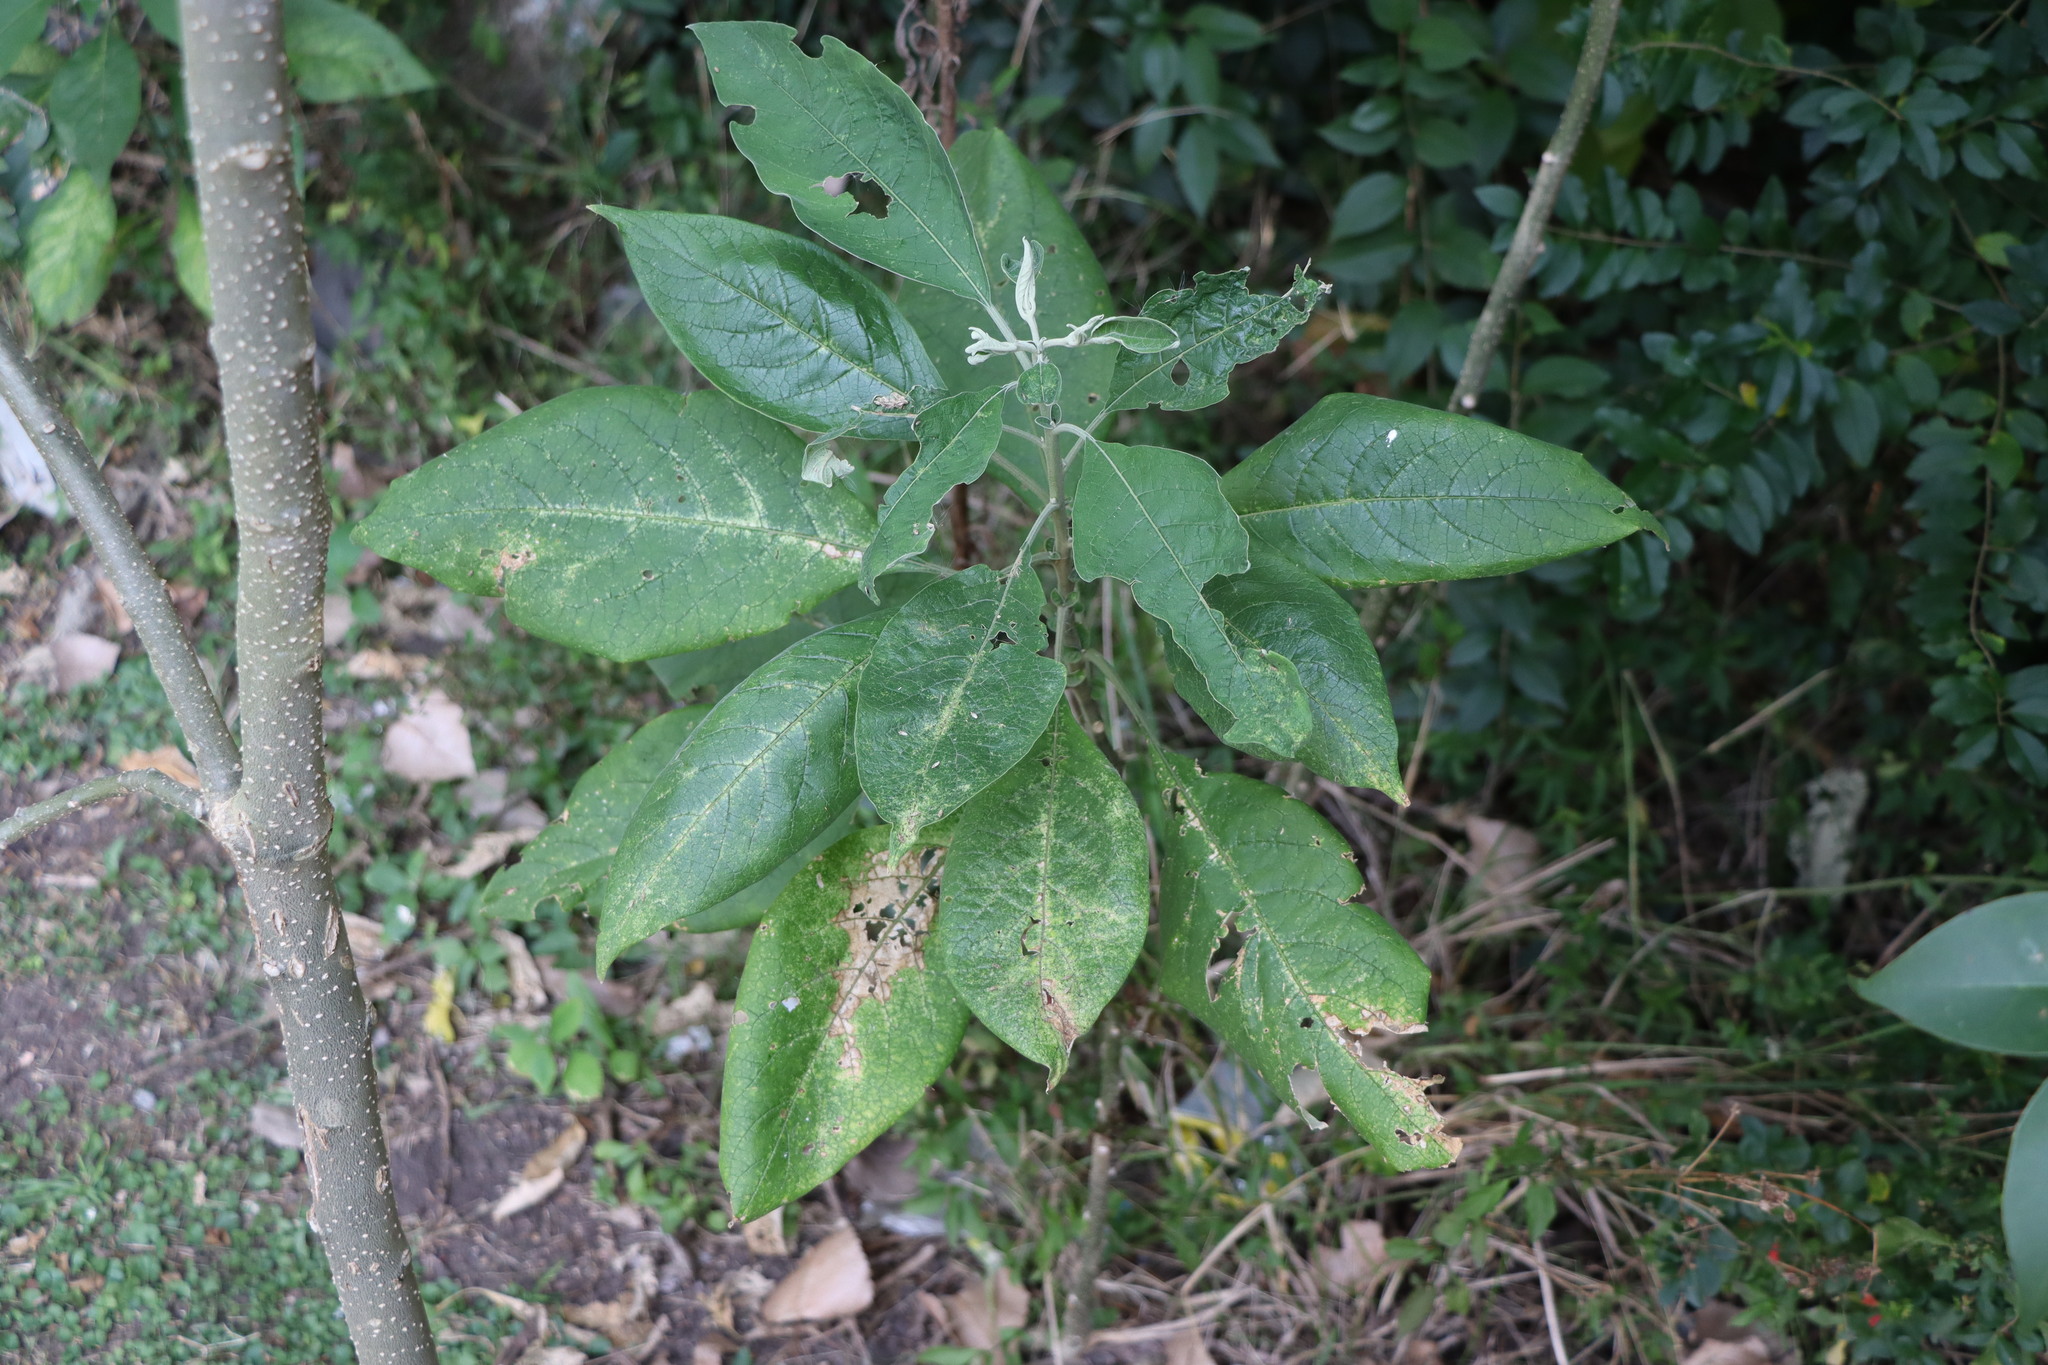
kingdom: Plantae
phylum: Tracheophyta
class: Magnoliopsida
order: Solanales
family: Solanaceae
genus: Solanum
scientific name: Solanum mauritianum
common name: Earleaf nightshade
